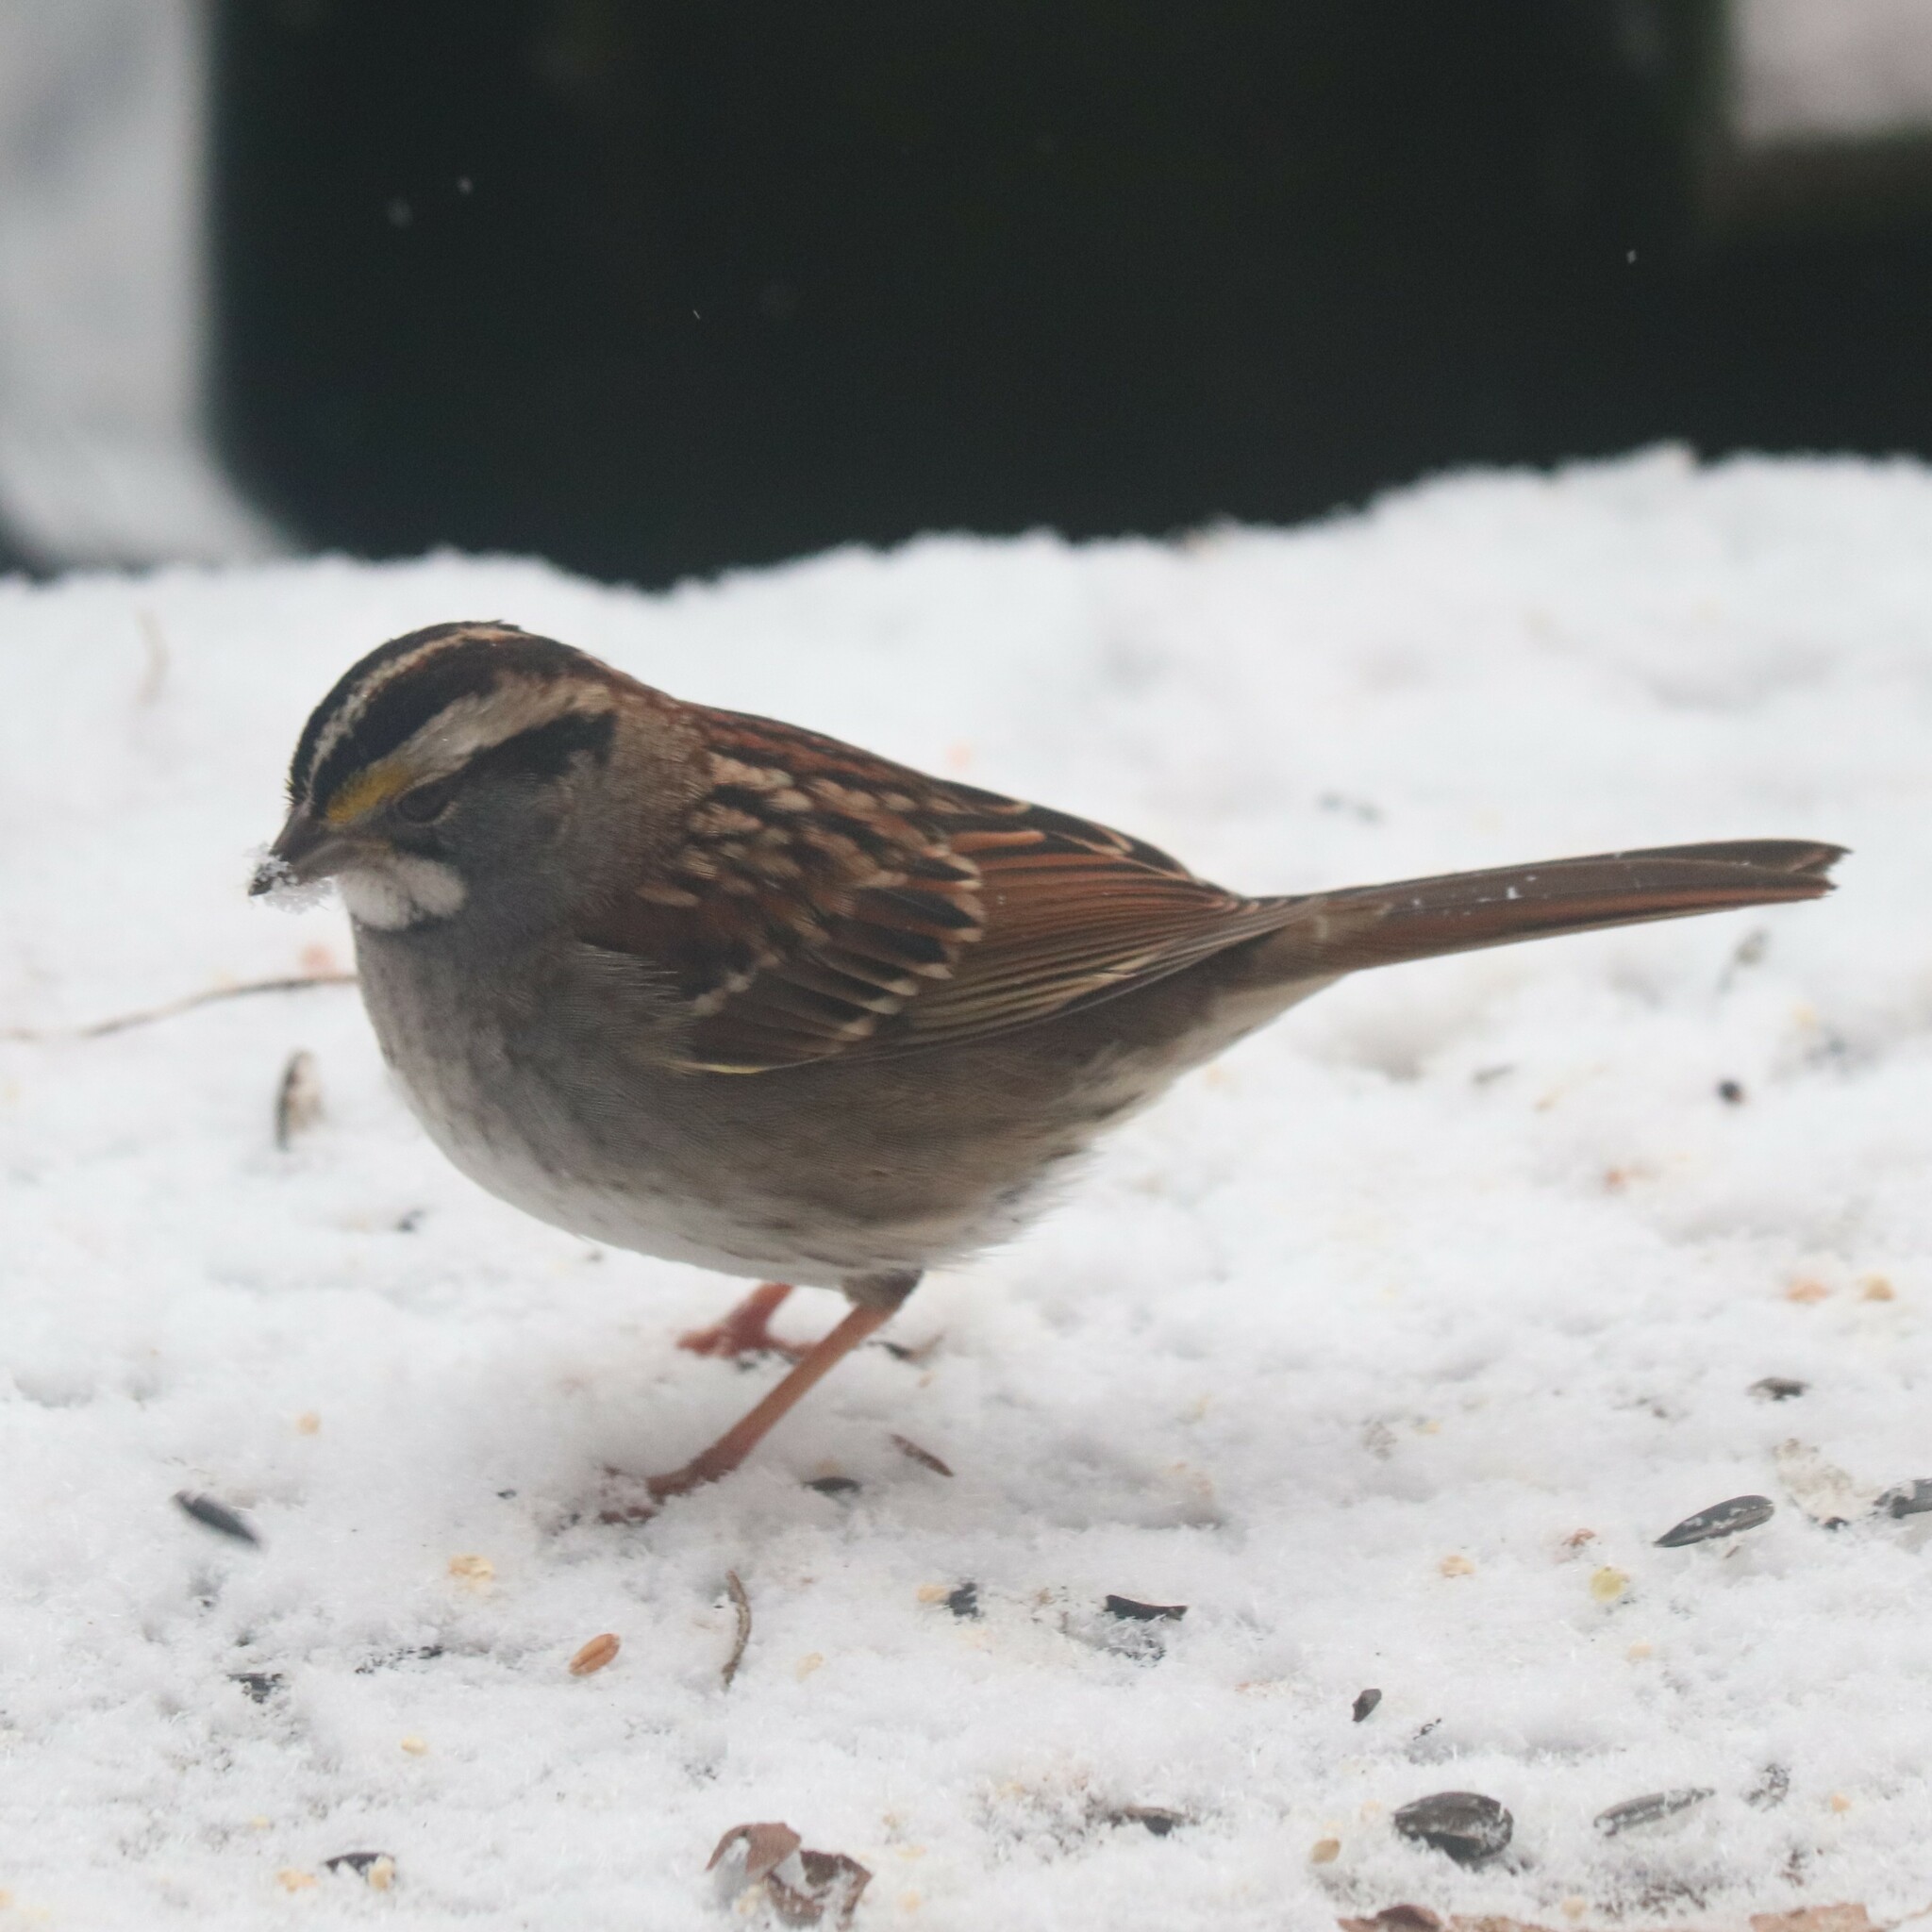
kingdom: Animalia
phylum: Chordata
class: Aves
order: Passeriformes
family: Passerellidae
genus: Zonotrichia
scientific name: Zonotrichia albicollis
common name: White-throated sparrow
